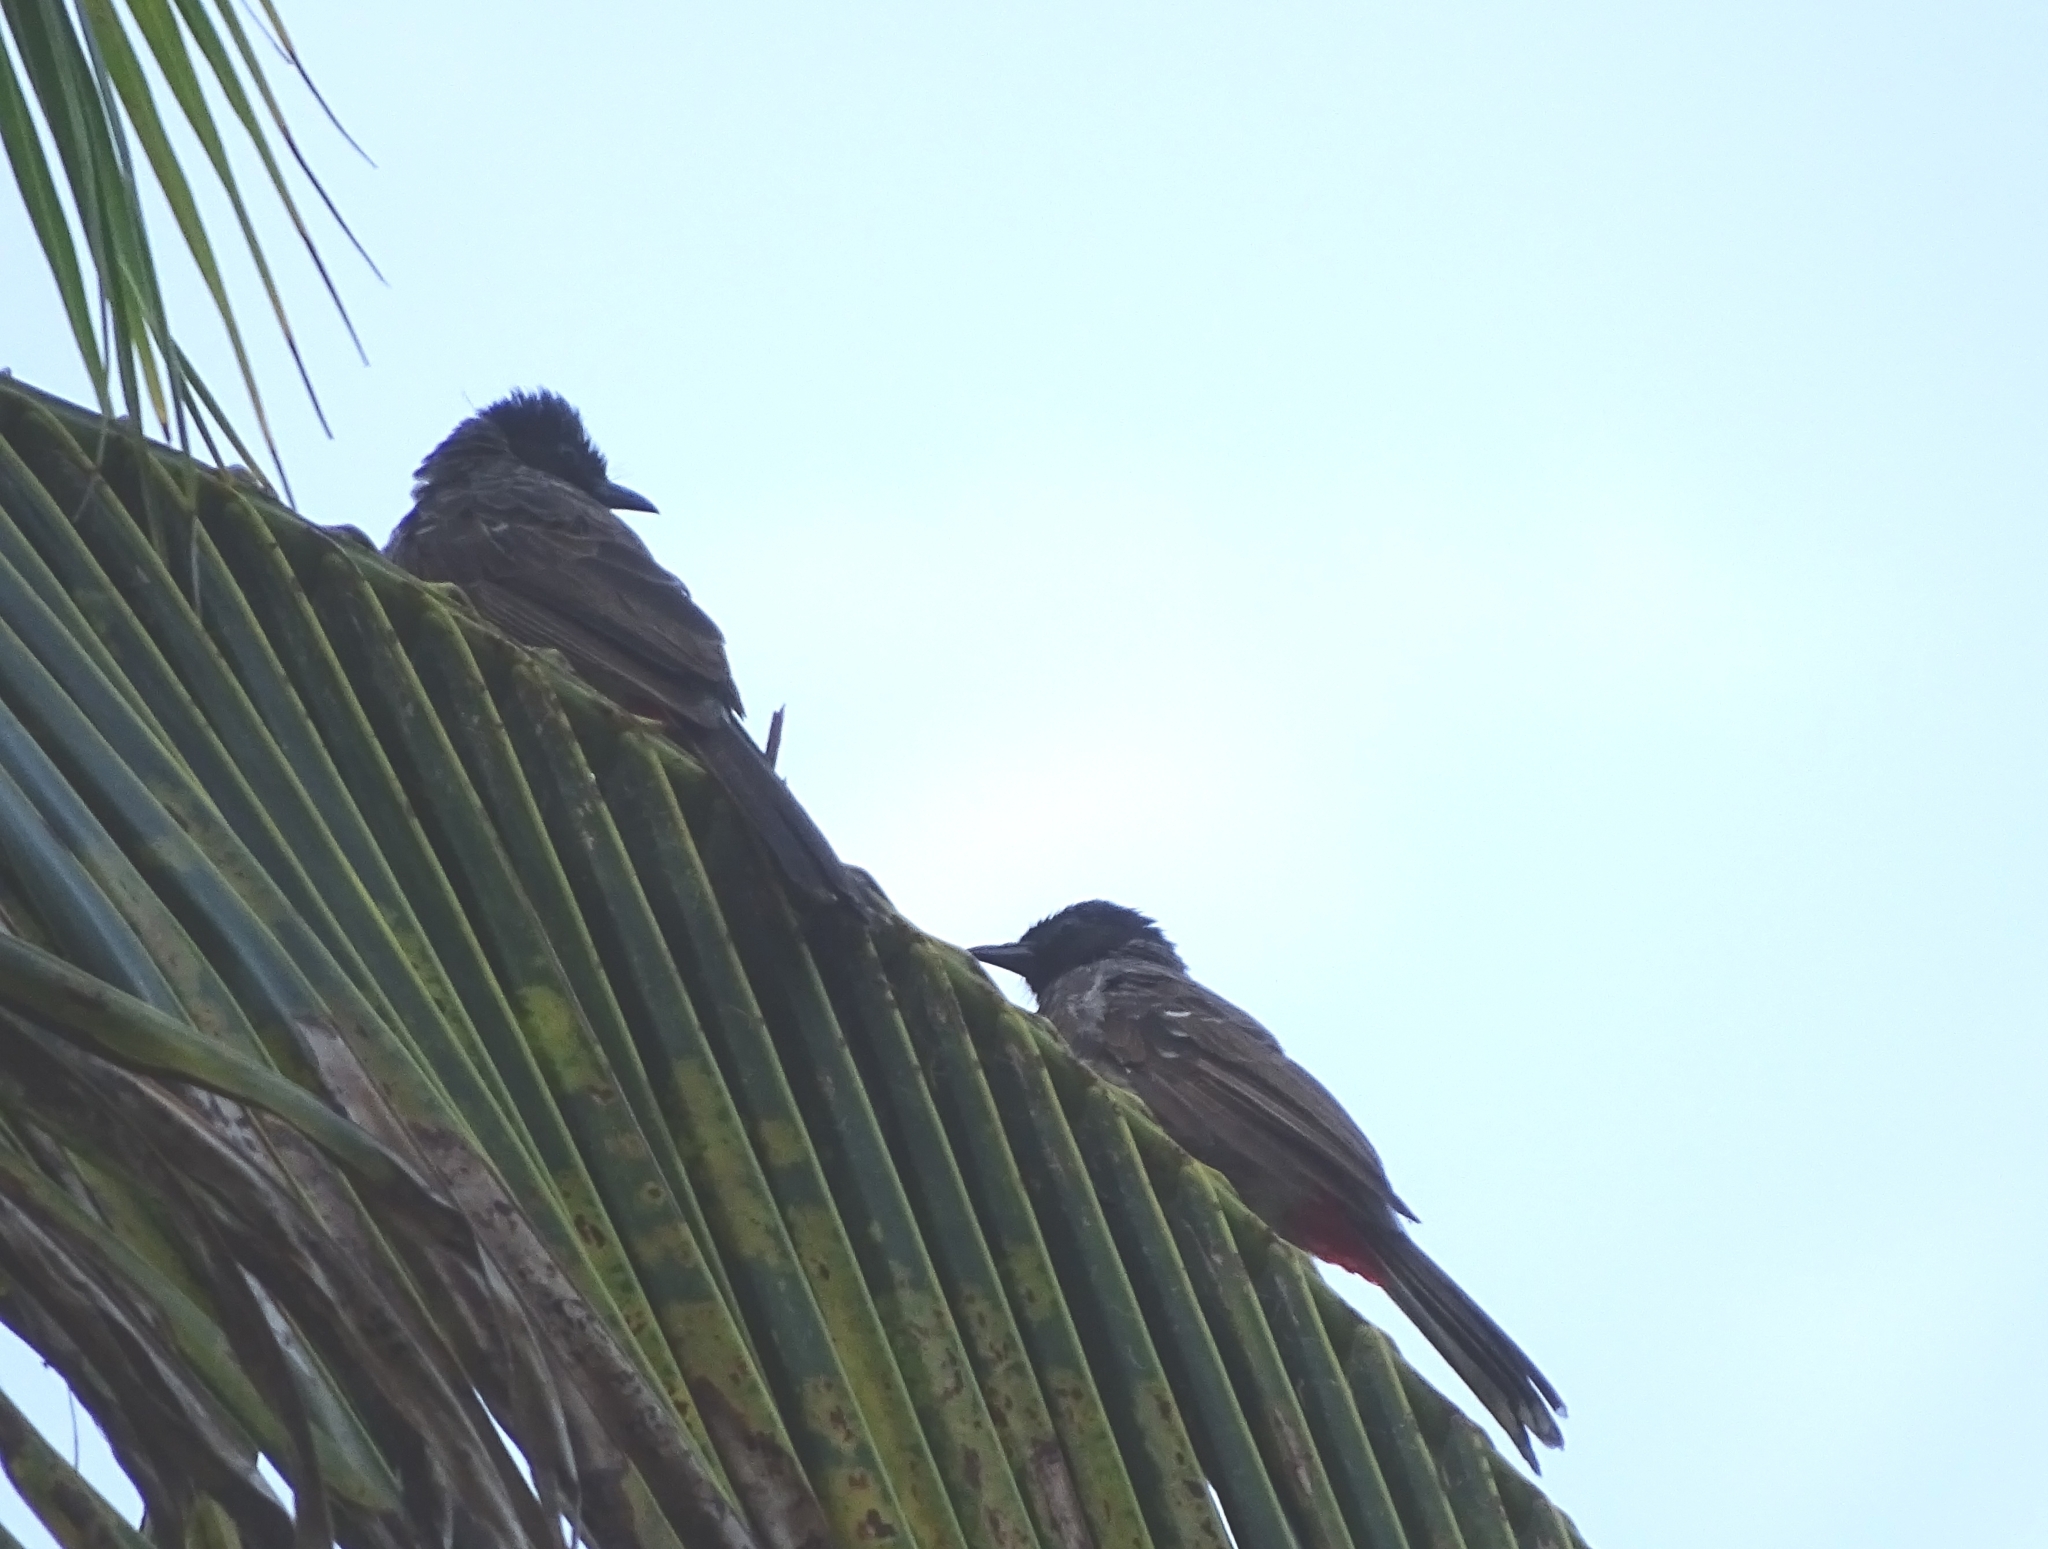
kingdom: Animalia
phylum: Chordata
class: Aves
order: Passeriformes
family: Pycnonotidae
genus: Pycnonotus
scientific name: Pycnonotus cafer
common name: Red-vented bulbul
